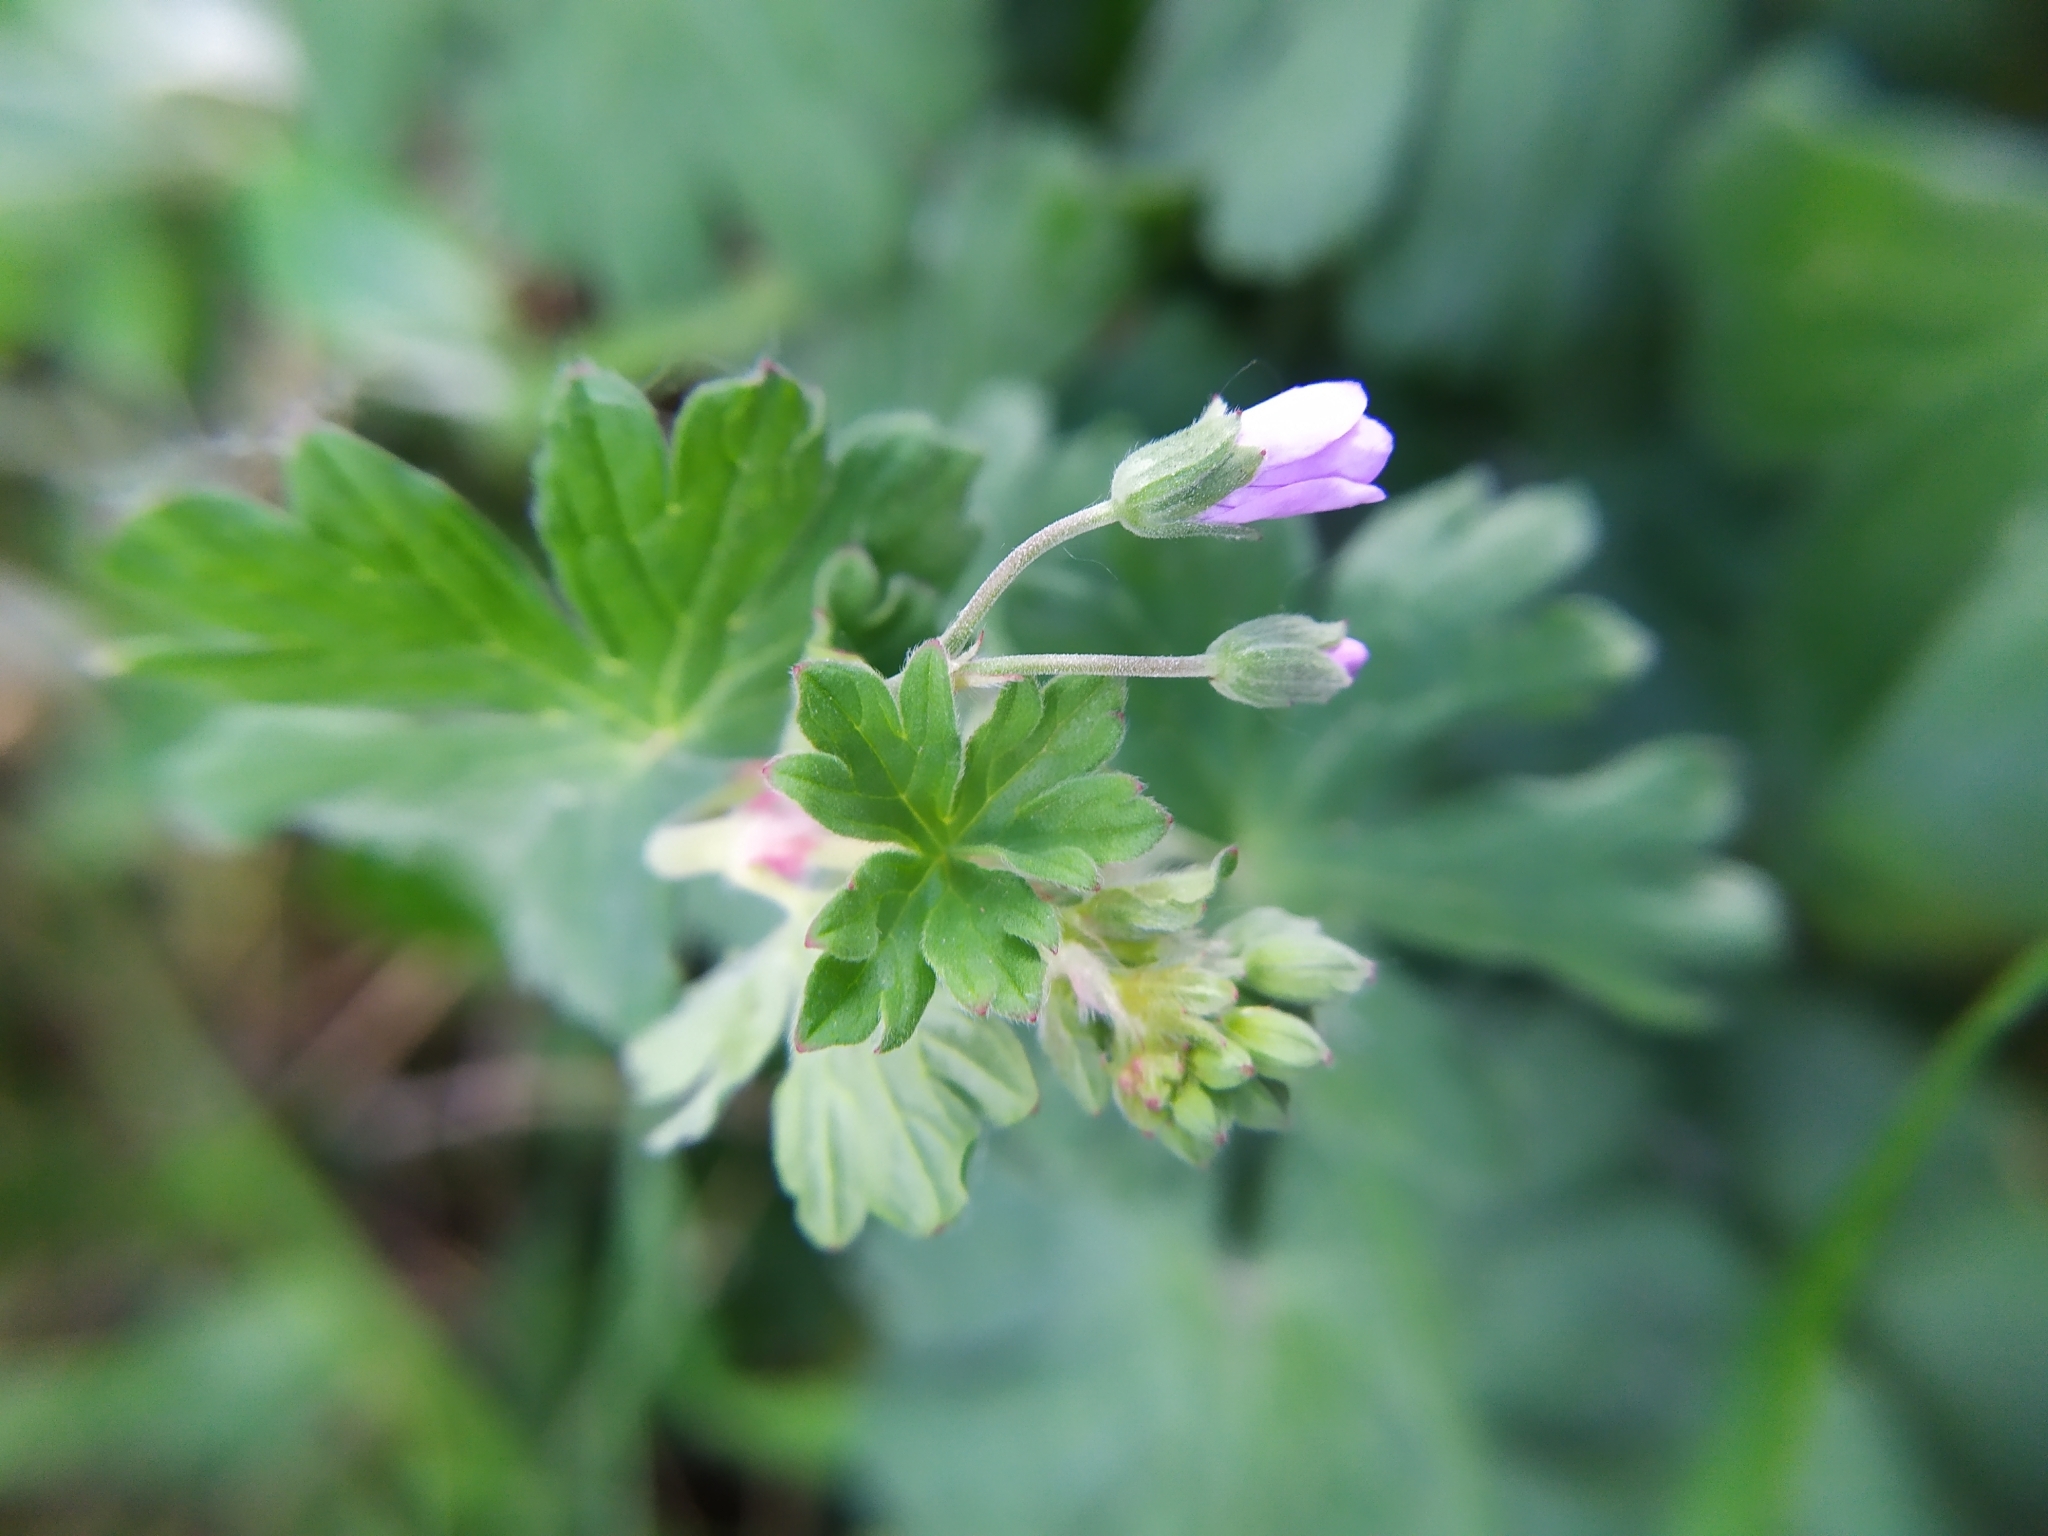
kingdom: Plantae
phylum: Tracheophyta
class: Magnoliopsida
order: Geraniales
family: Geraniaceae
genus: Geranium
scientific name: Geranium pyrenaicum
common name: Hedgerow crane's-bill
